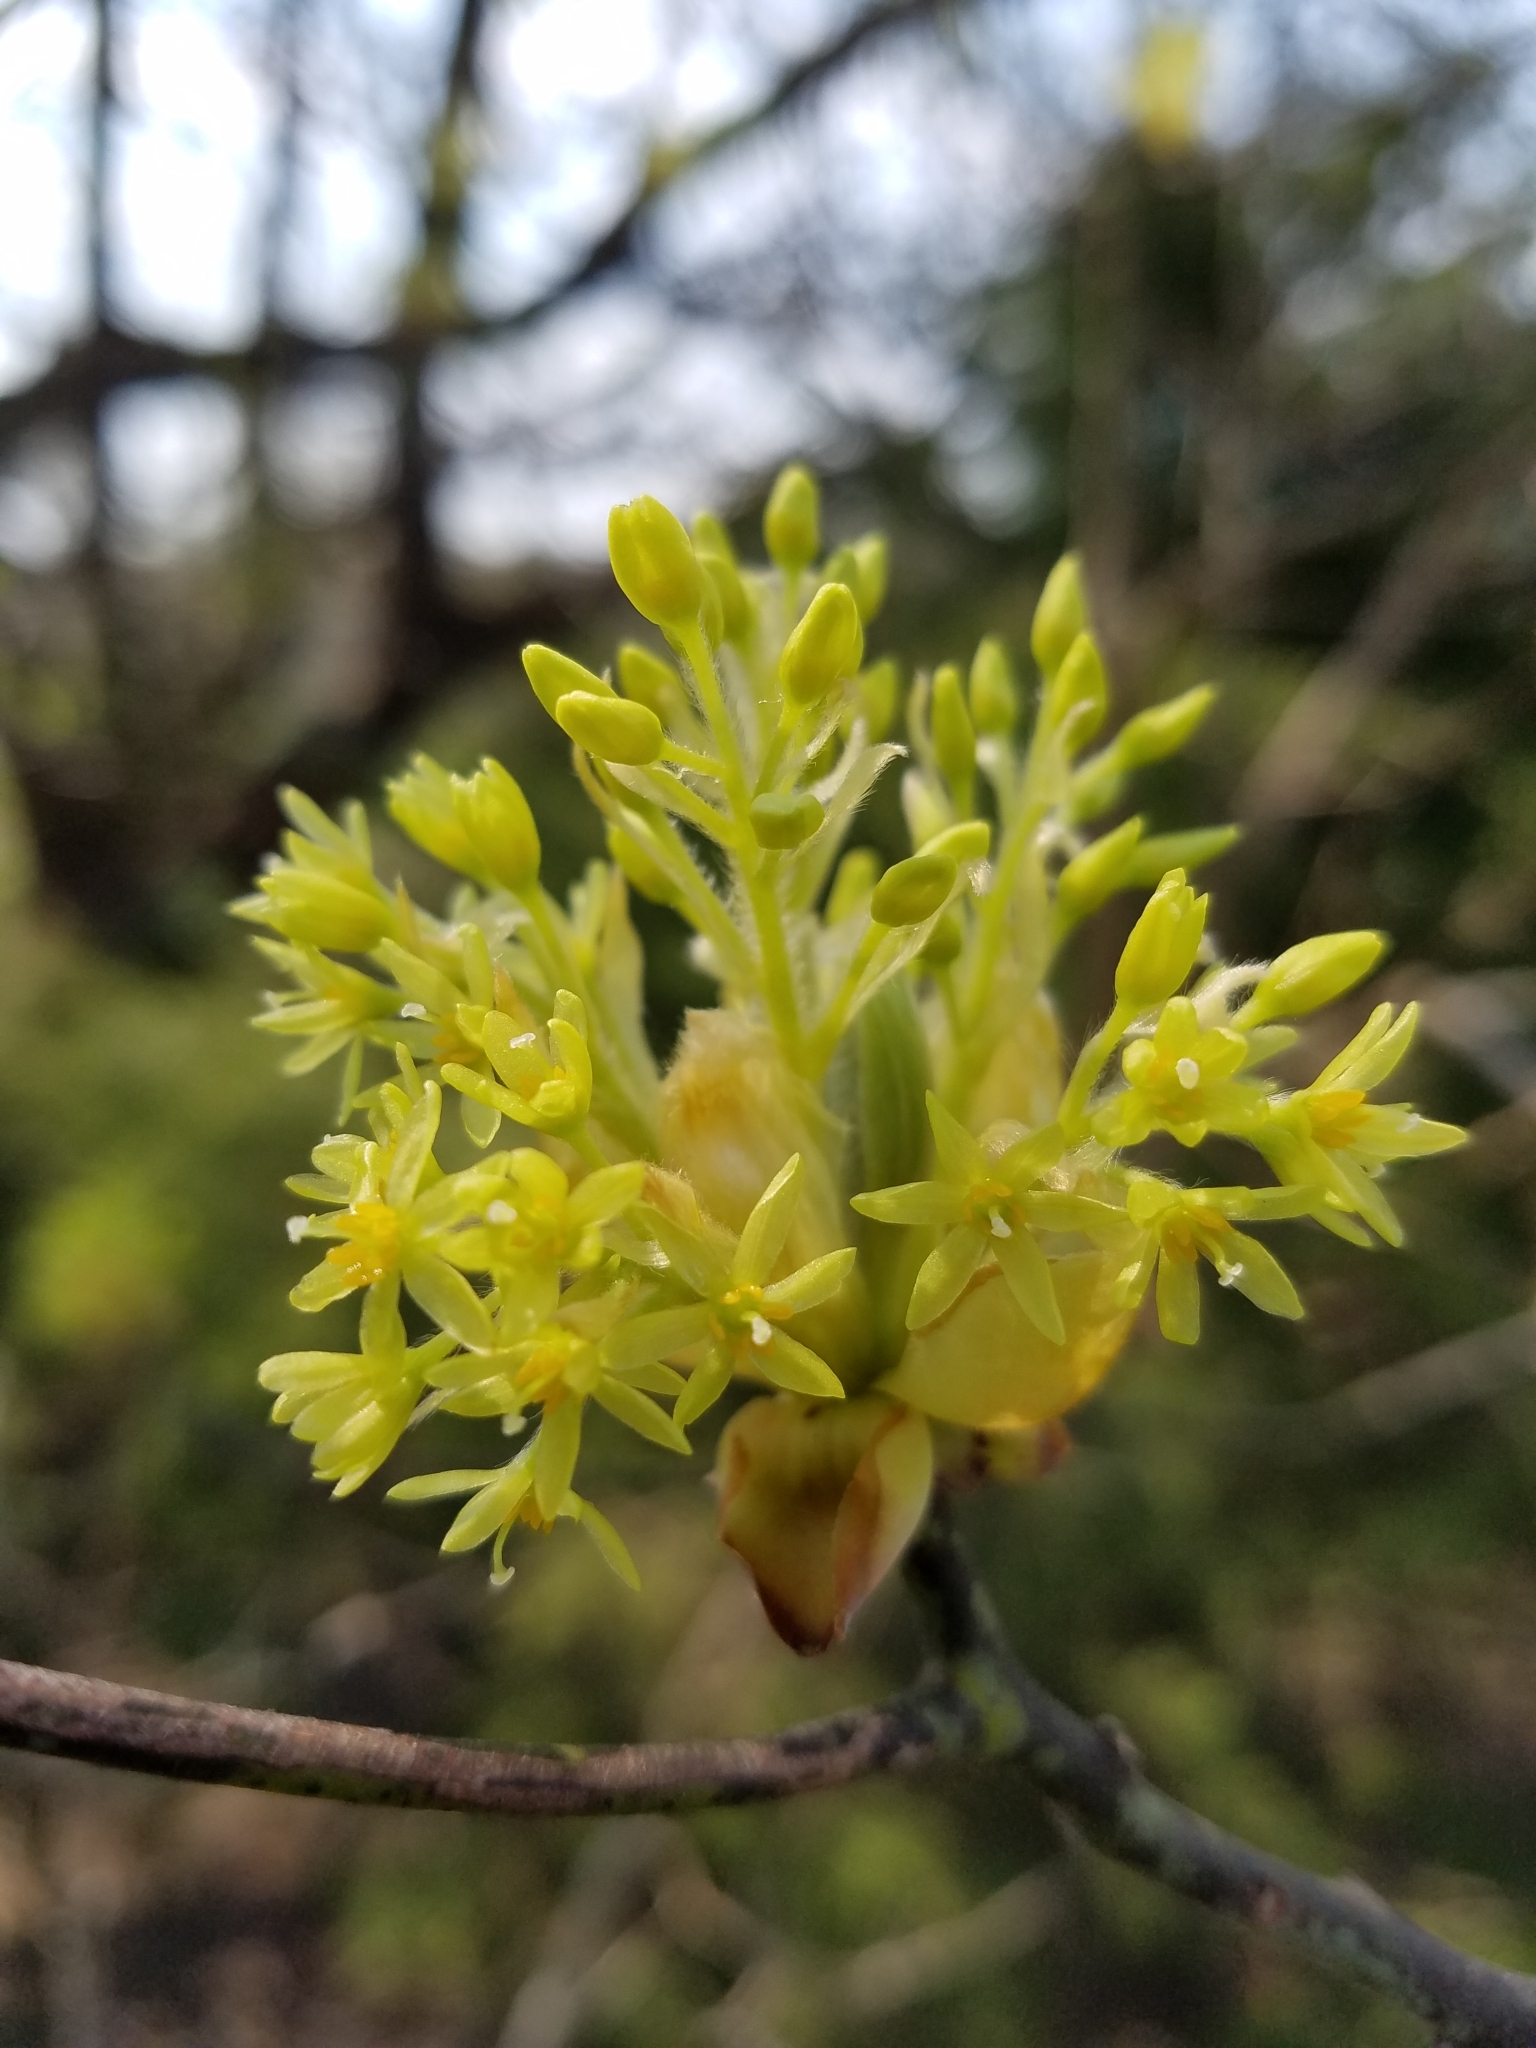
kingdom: Plantae
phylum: Tracheophyta
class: Magnoliopsida
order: Laurales
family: Lauraceae
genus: Sassafras
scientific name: Sassafras albidum
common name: Sassafras
